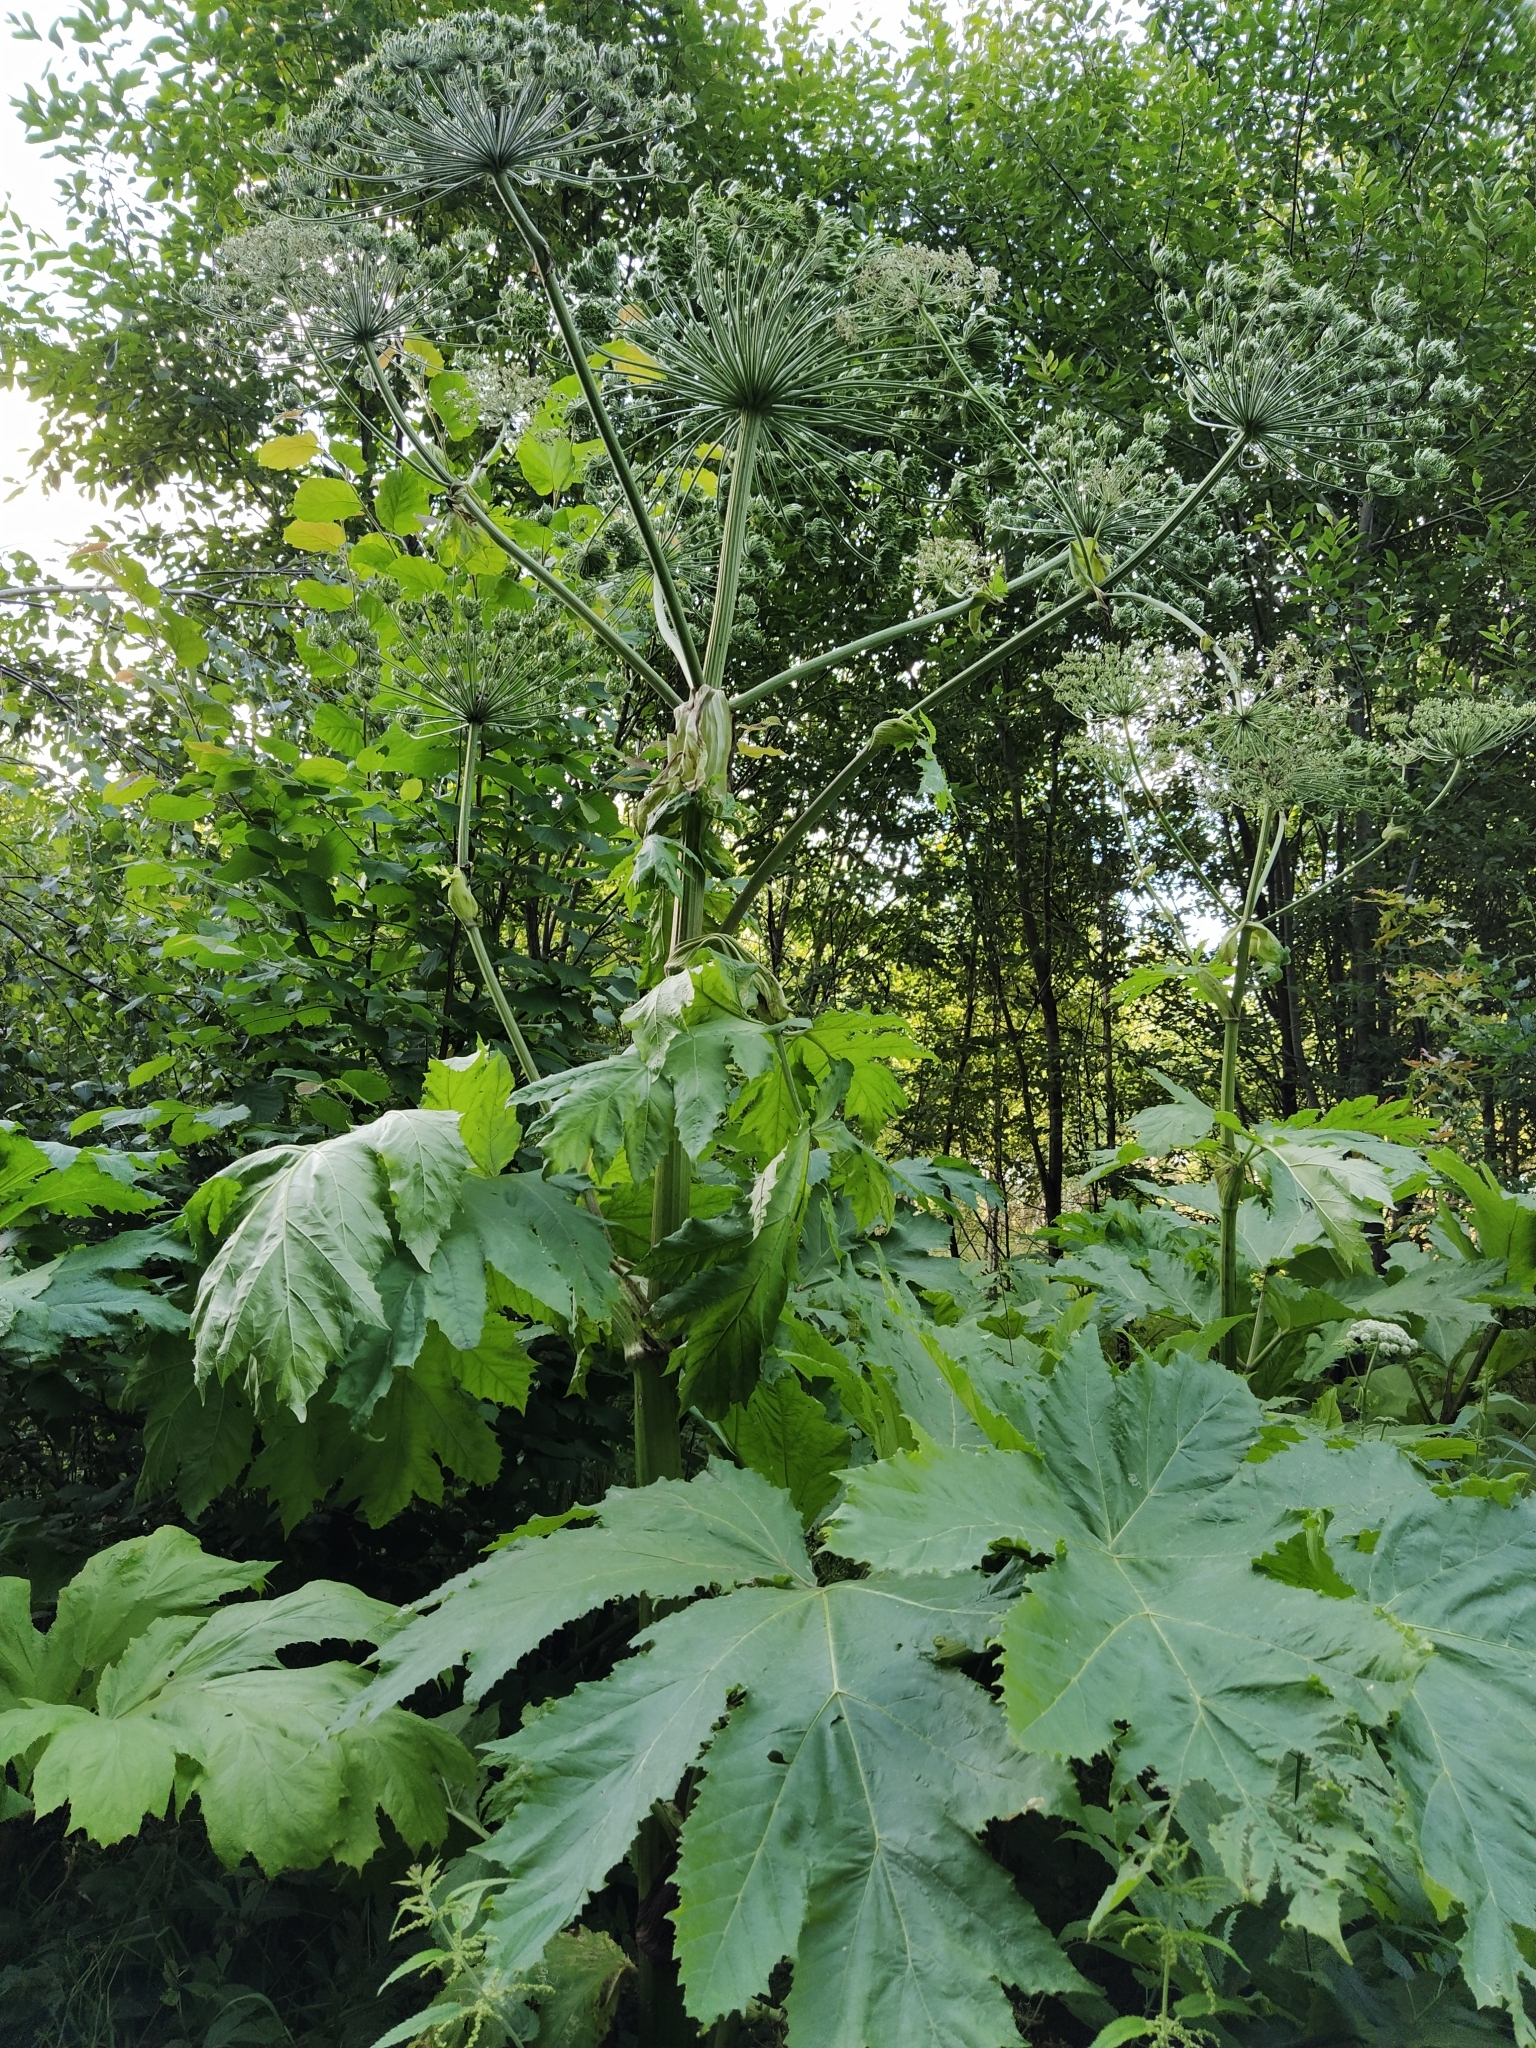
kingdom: Plantae
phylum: Tracheophyta
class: Magnoliopsida
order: Apiales
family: Apiaceae
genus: Heracleum
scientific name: Heracleum sosnowskyi
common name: Sosnowsky's hogweed
